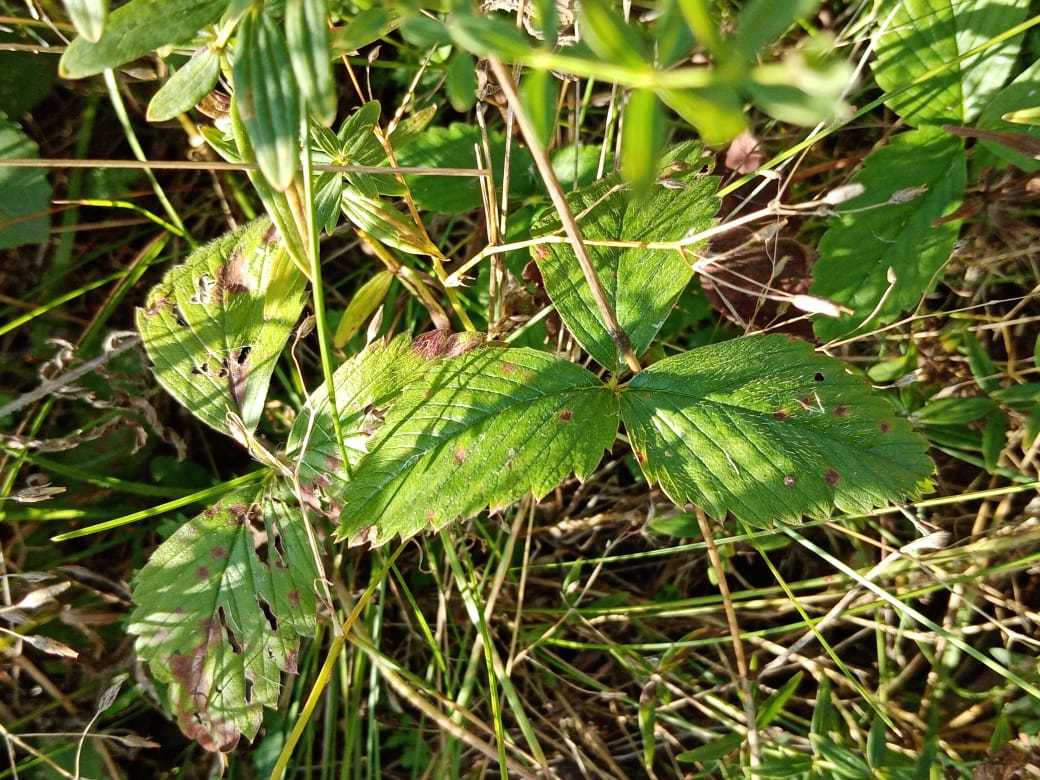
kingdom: Plantae
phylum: Tracheophyta
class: Magnoliopsida
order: Rosales
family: Rosaceae
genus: Fragaria
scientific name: Fragaria viridis
